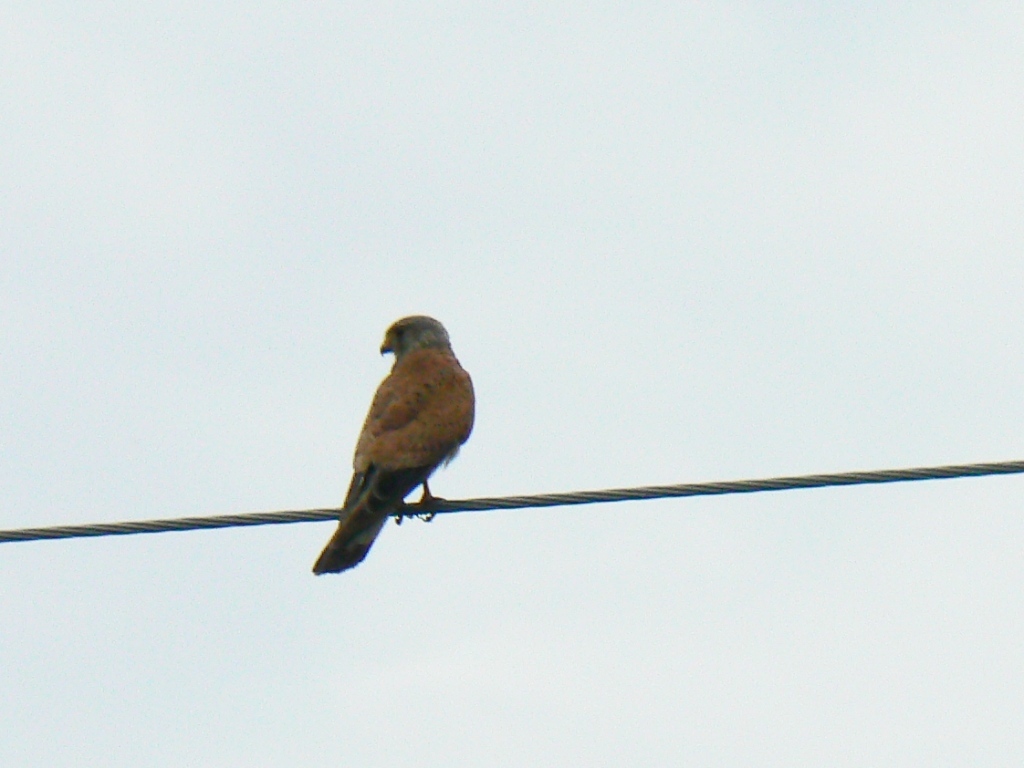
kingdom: Animalia
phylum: Chordata
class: Aves
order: Falconiformes
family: Falconidae
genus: Falco
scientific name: Falco tinnunculus
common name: Common kestrel
